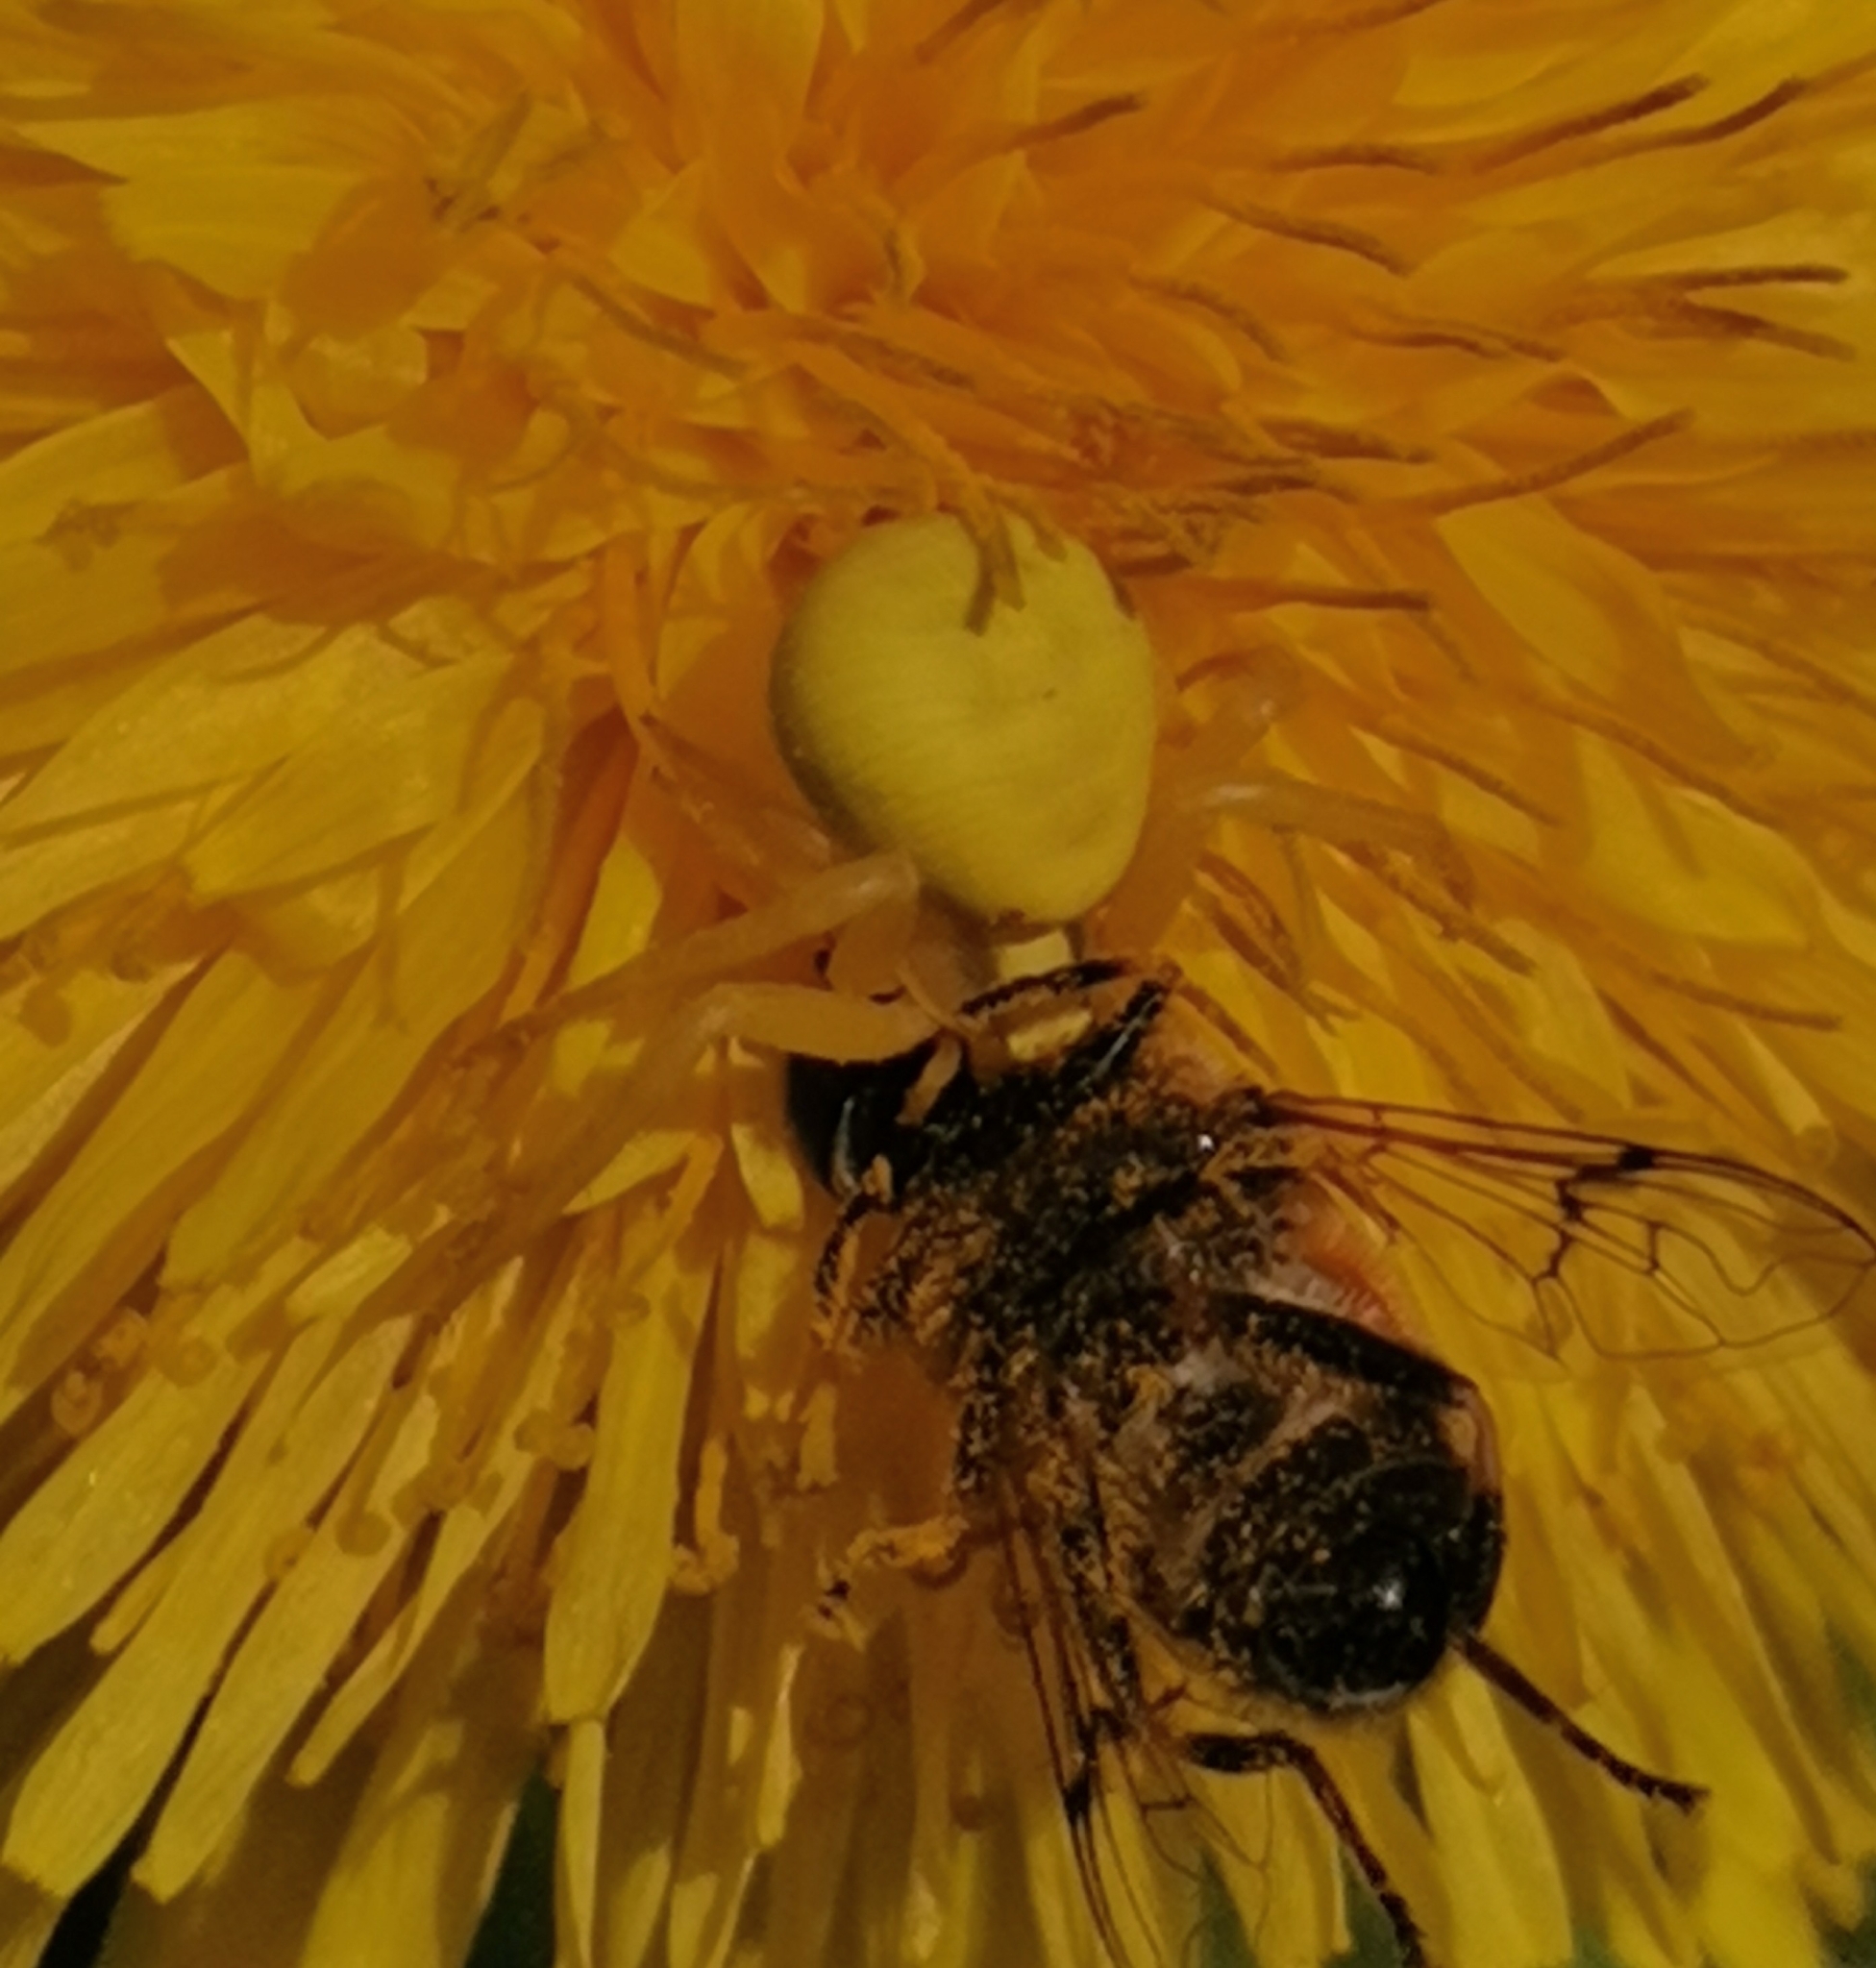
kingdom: Animalia
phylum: Arthropoda
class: Arachnida
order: Araneae
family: Thomisidae
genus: Misumena
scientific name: Misumena vatia
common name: Goldenrod crab spider
